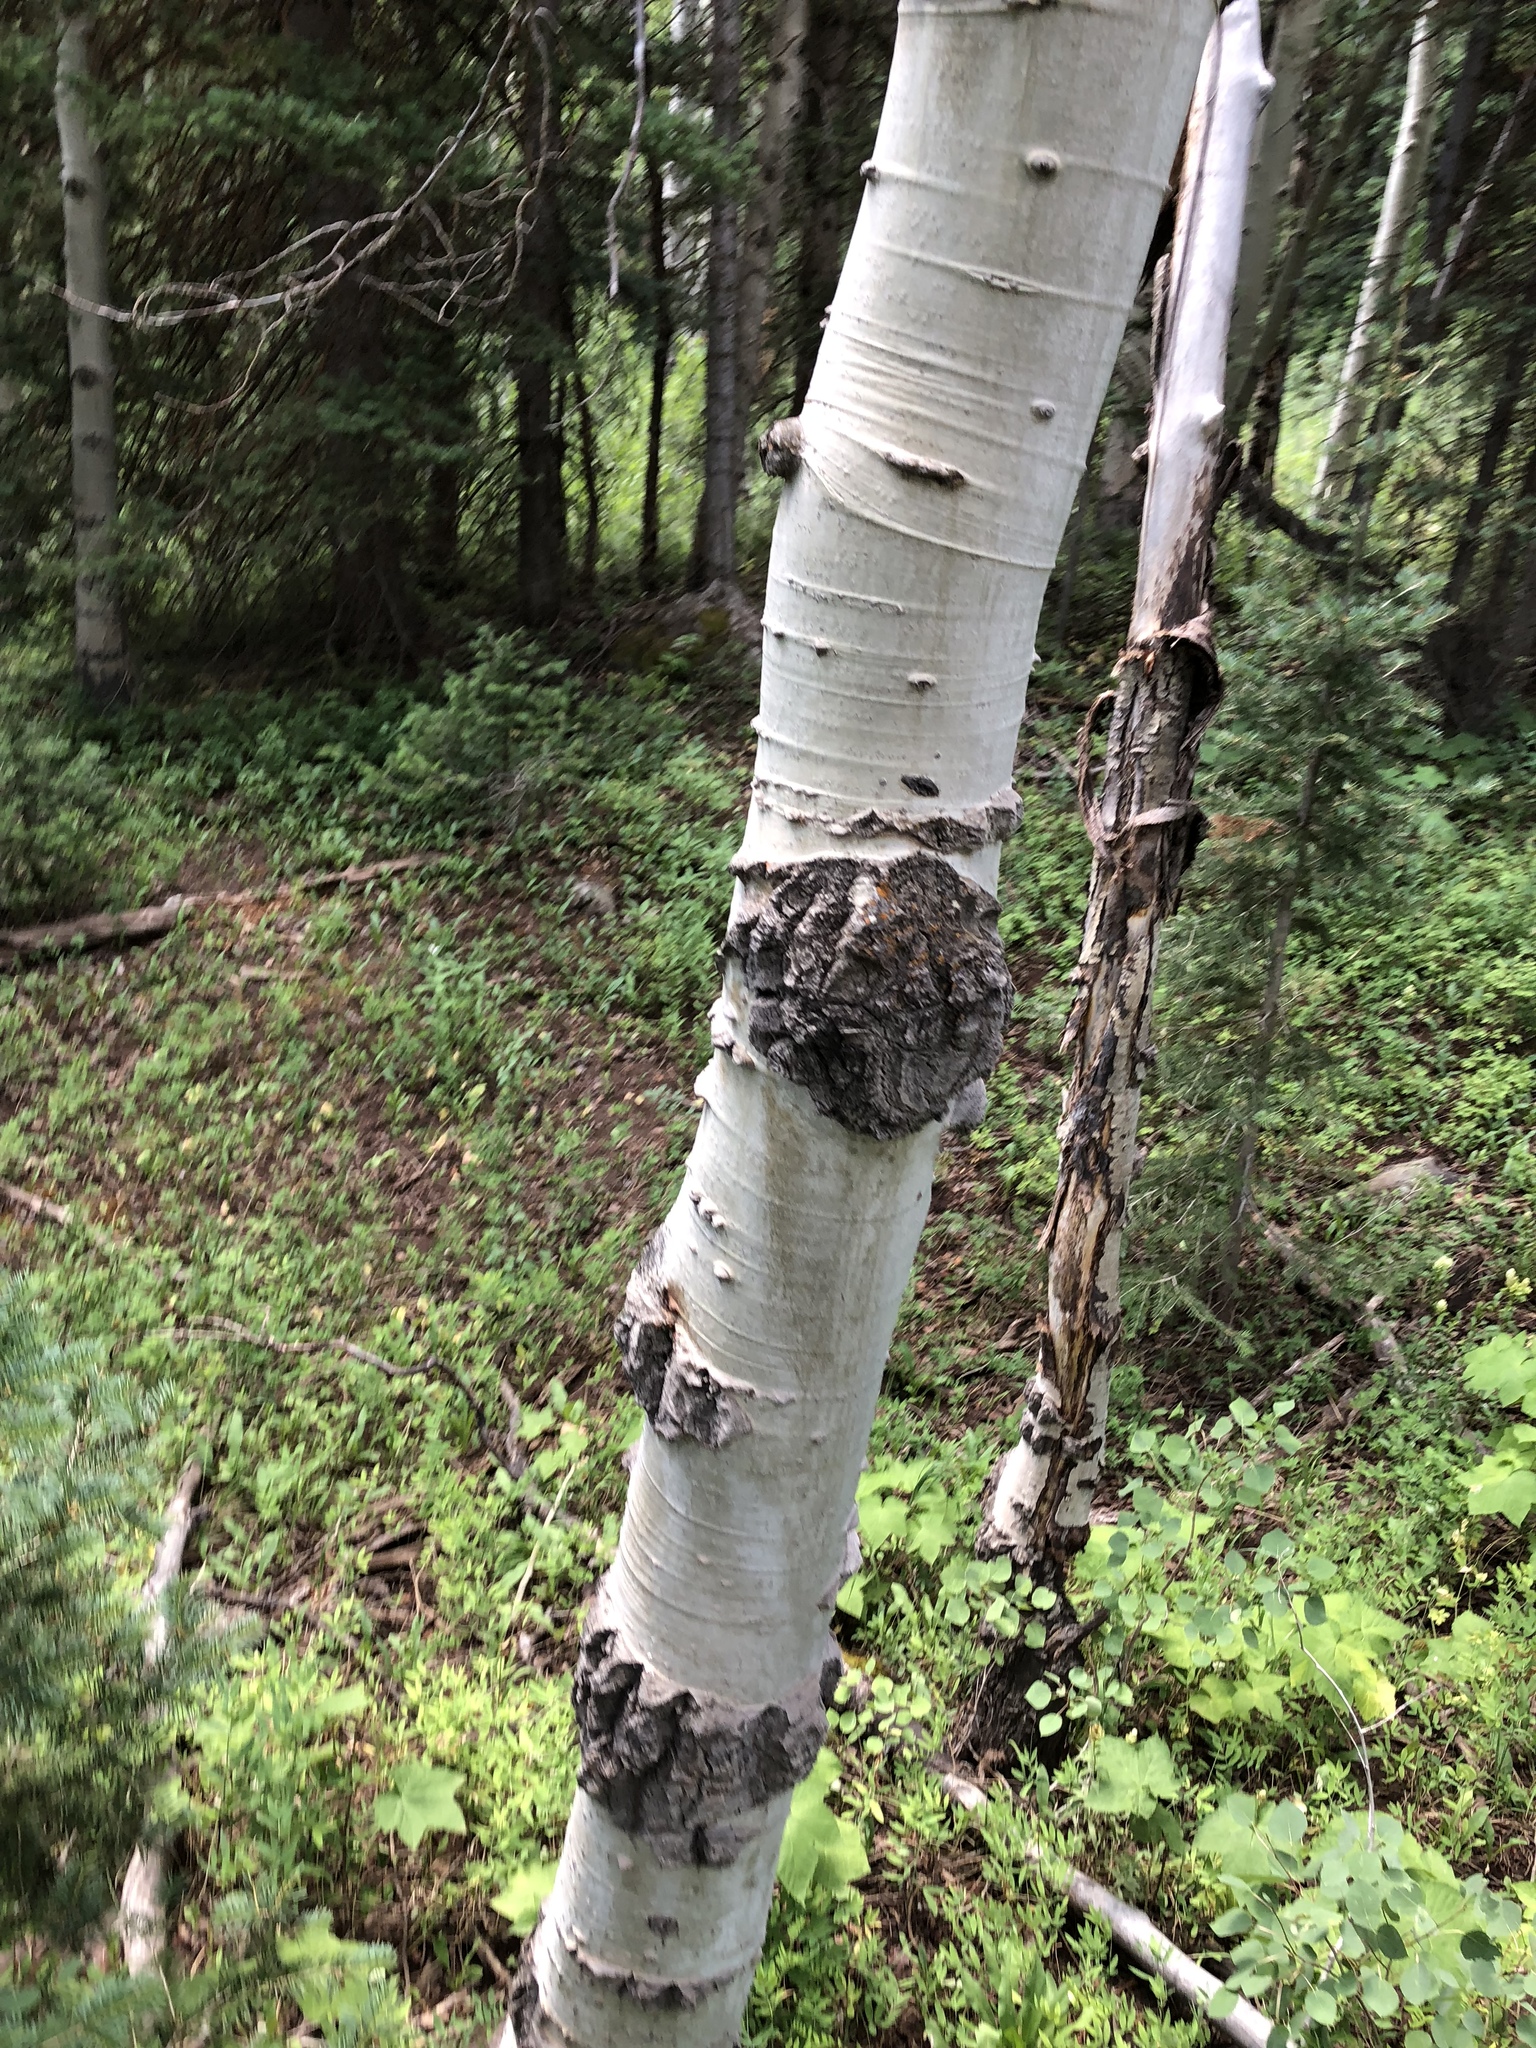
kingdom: Plantae
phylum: Tracheophyta
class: Magnoliopsida
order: Malpighiales
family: Salicaceae
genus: Populus
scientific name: Populus tremuloides
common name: Quaking aspen
